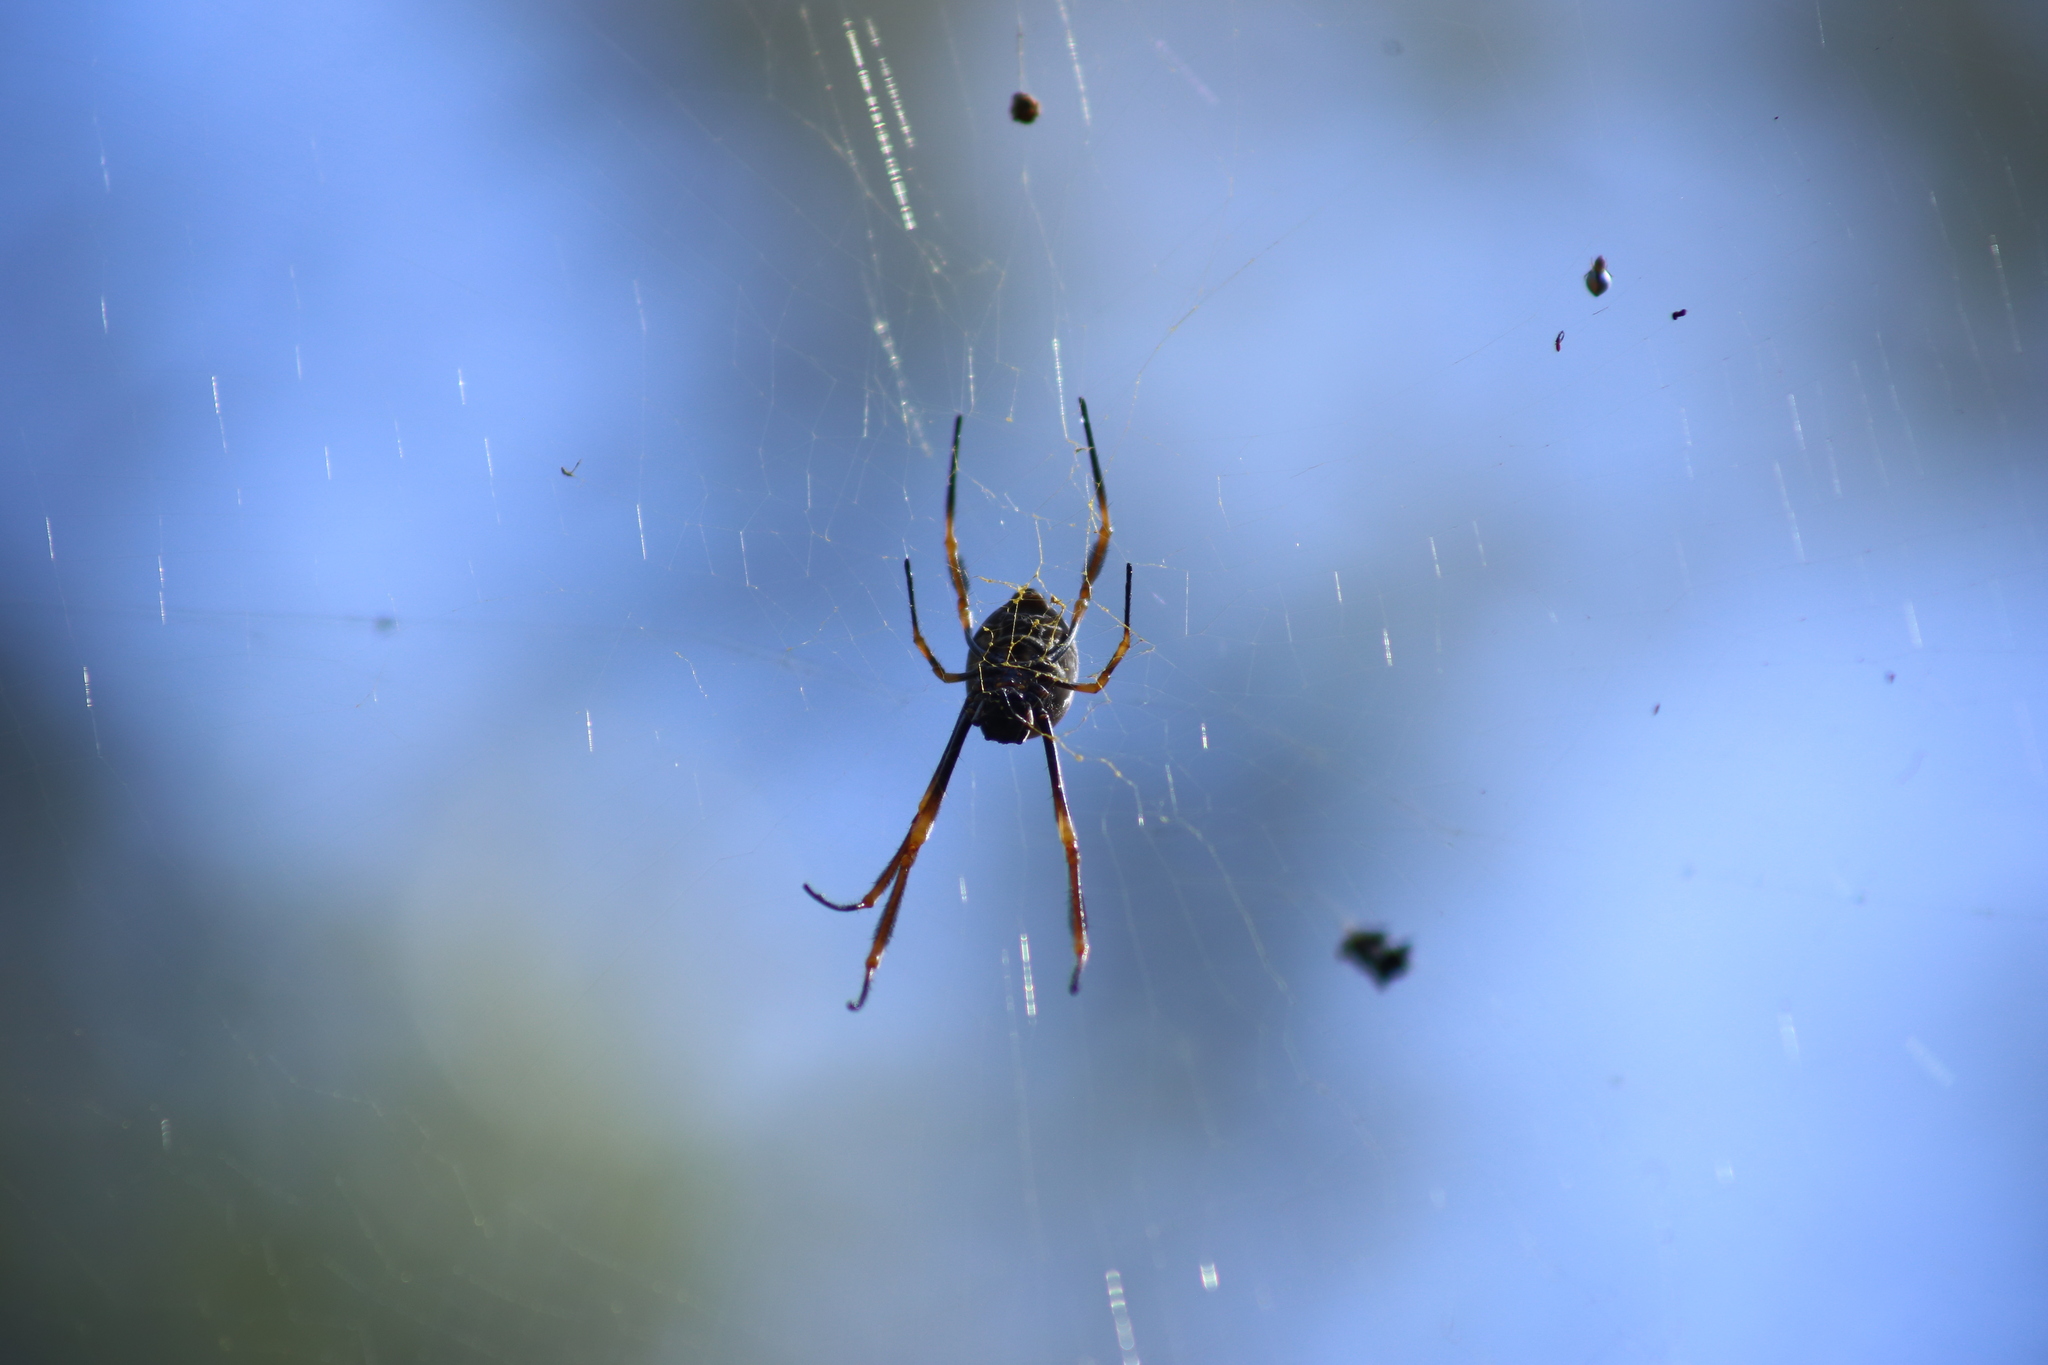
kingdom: Animalia
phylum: Arthropoda
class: Arachnida
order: Araneae
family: Araneidae
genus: Trichonephila
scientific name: Trichonephila plumipes
